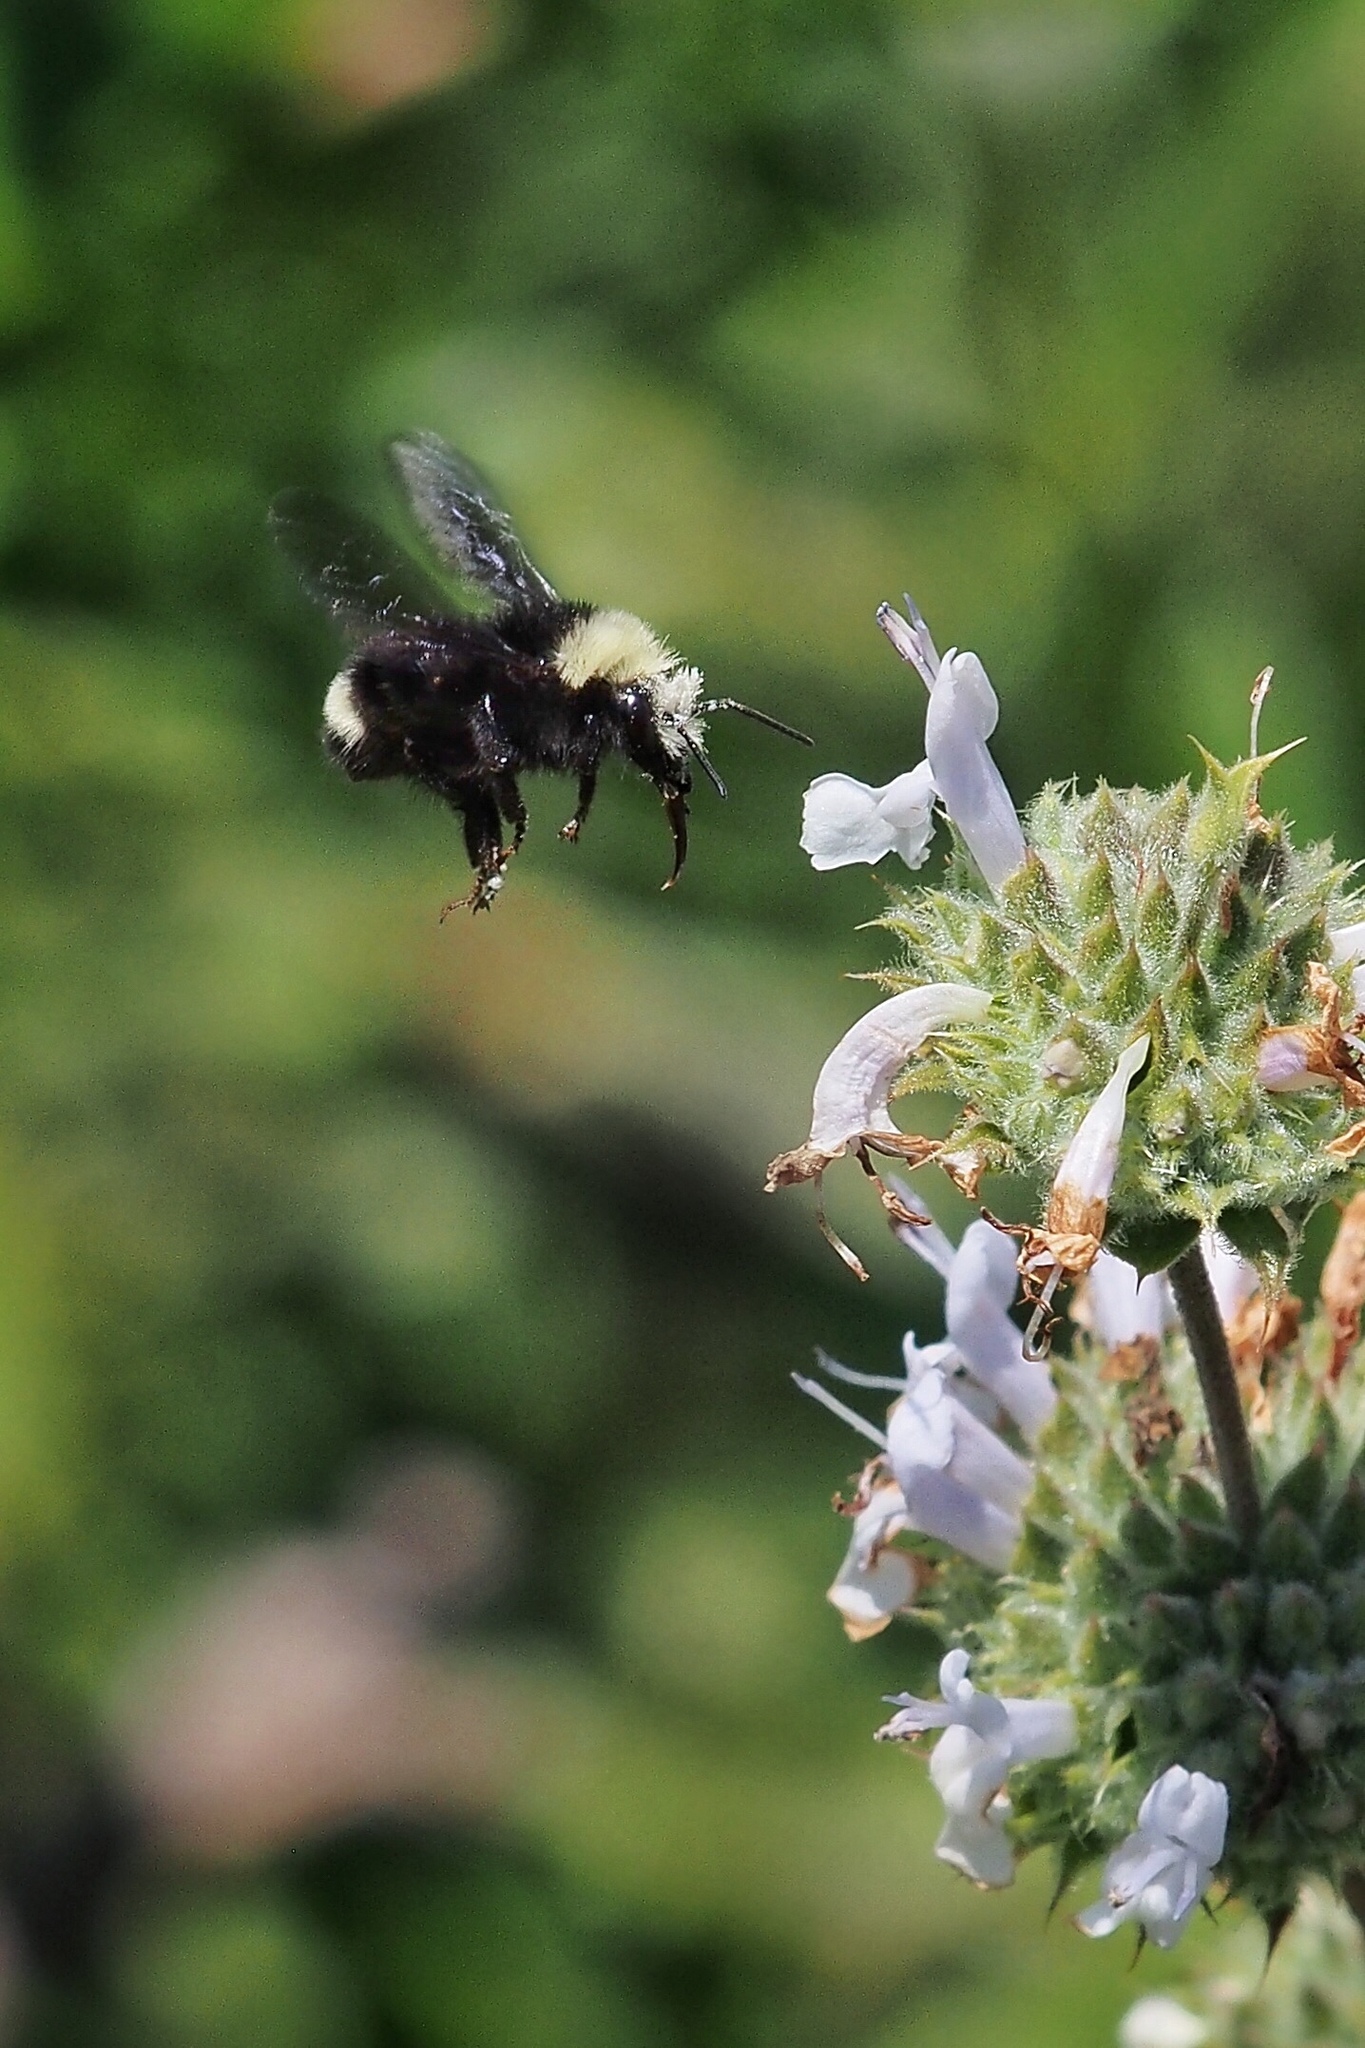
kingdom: Animalia
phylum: Arthropoda
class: Insecta
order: Hymenoptera
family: Apidae
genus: Bombus
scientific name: Bombus vosnesenskii
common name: Vosnesensky bumble bee
